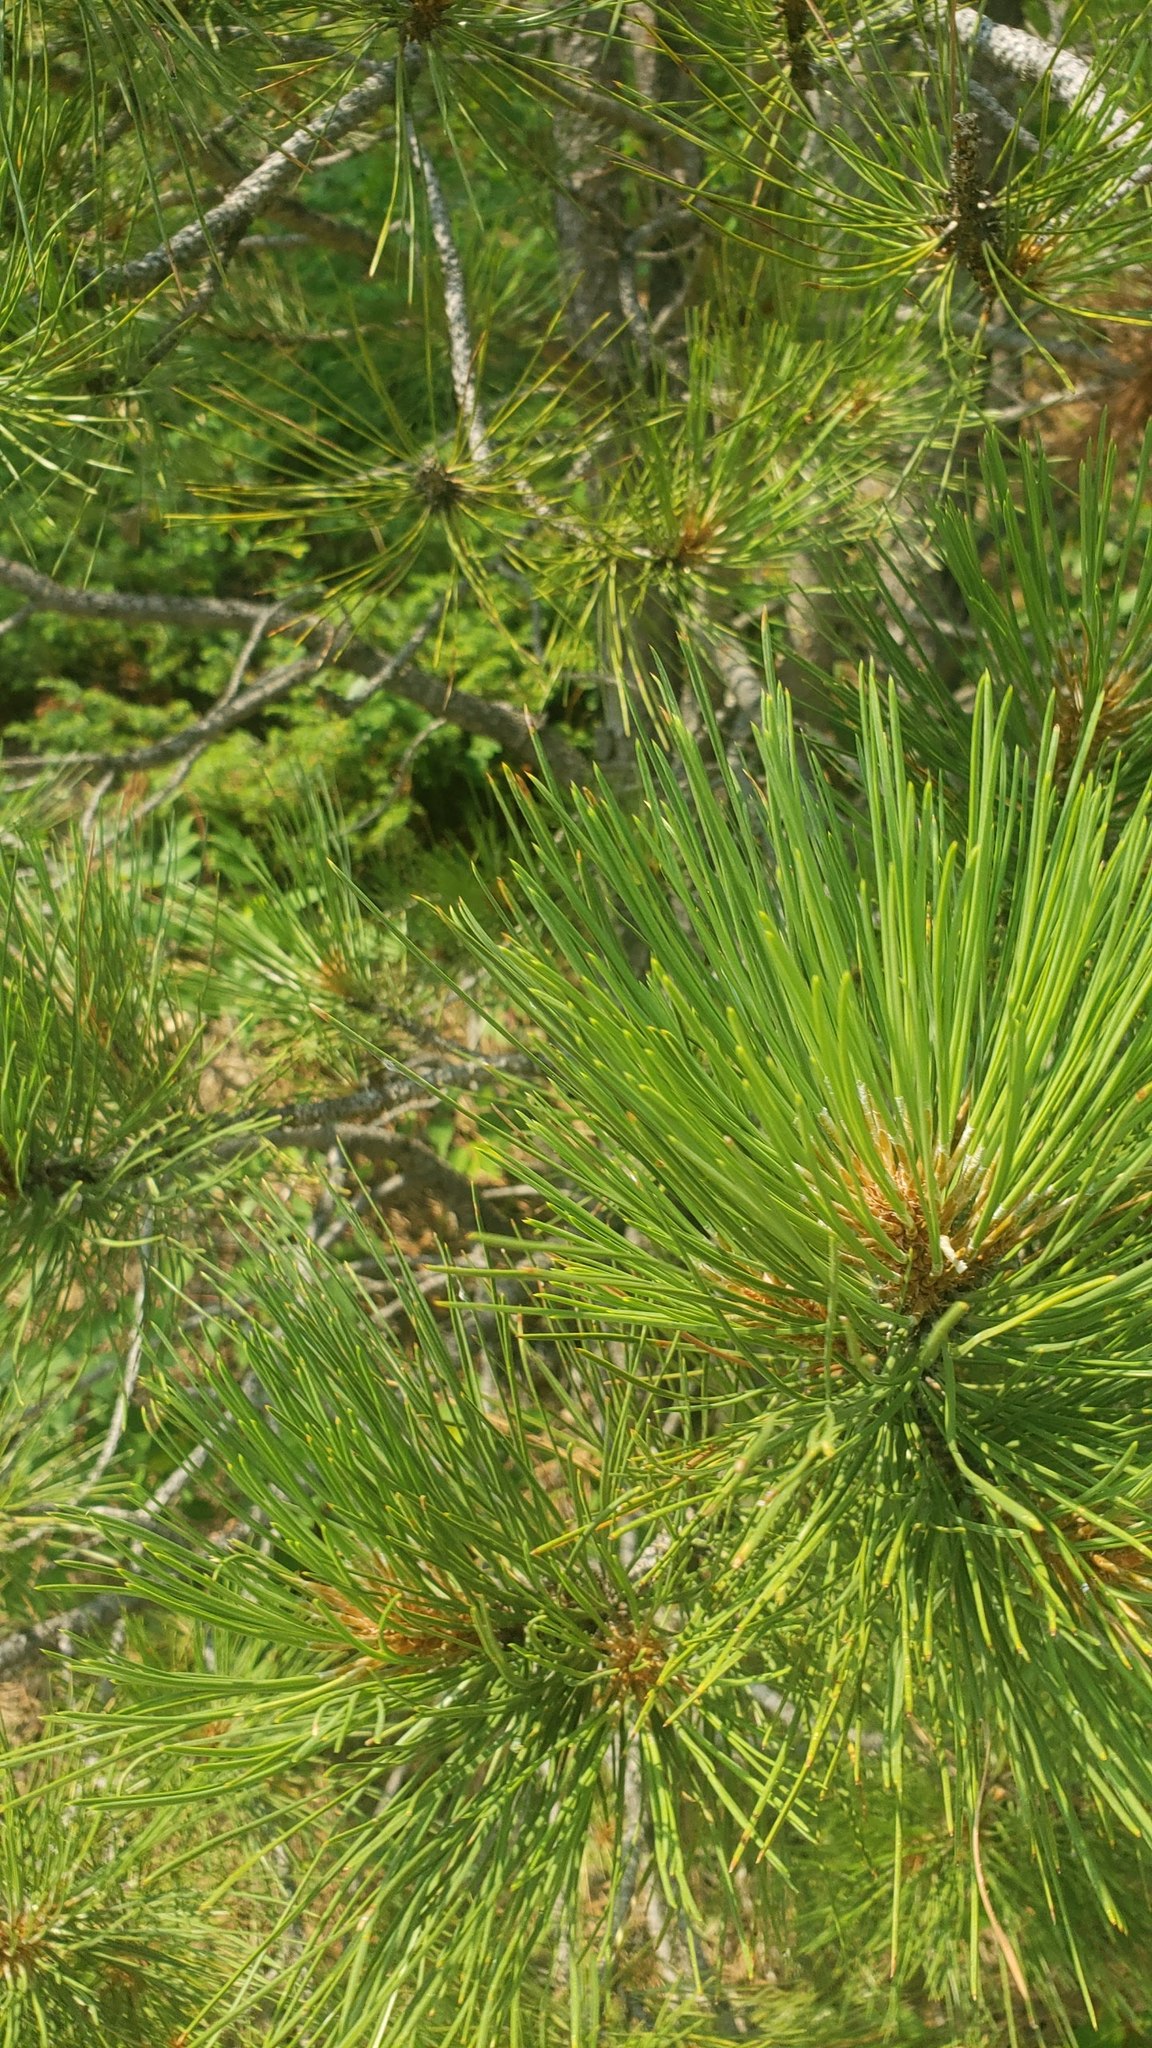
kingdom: Plantae
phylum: Tracheophyta
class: Pinopsida
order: Pinales
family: Pinaceae
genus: Pinus
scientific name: Pinus ponderosa
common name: Western yellow-pine
